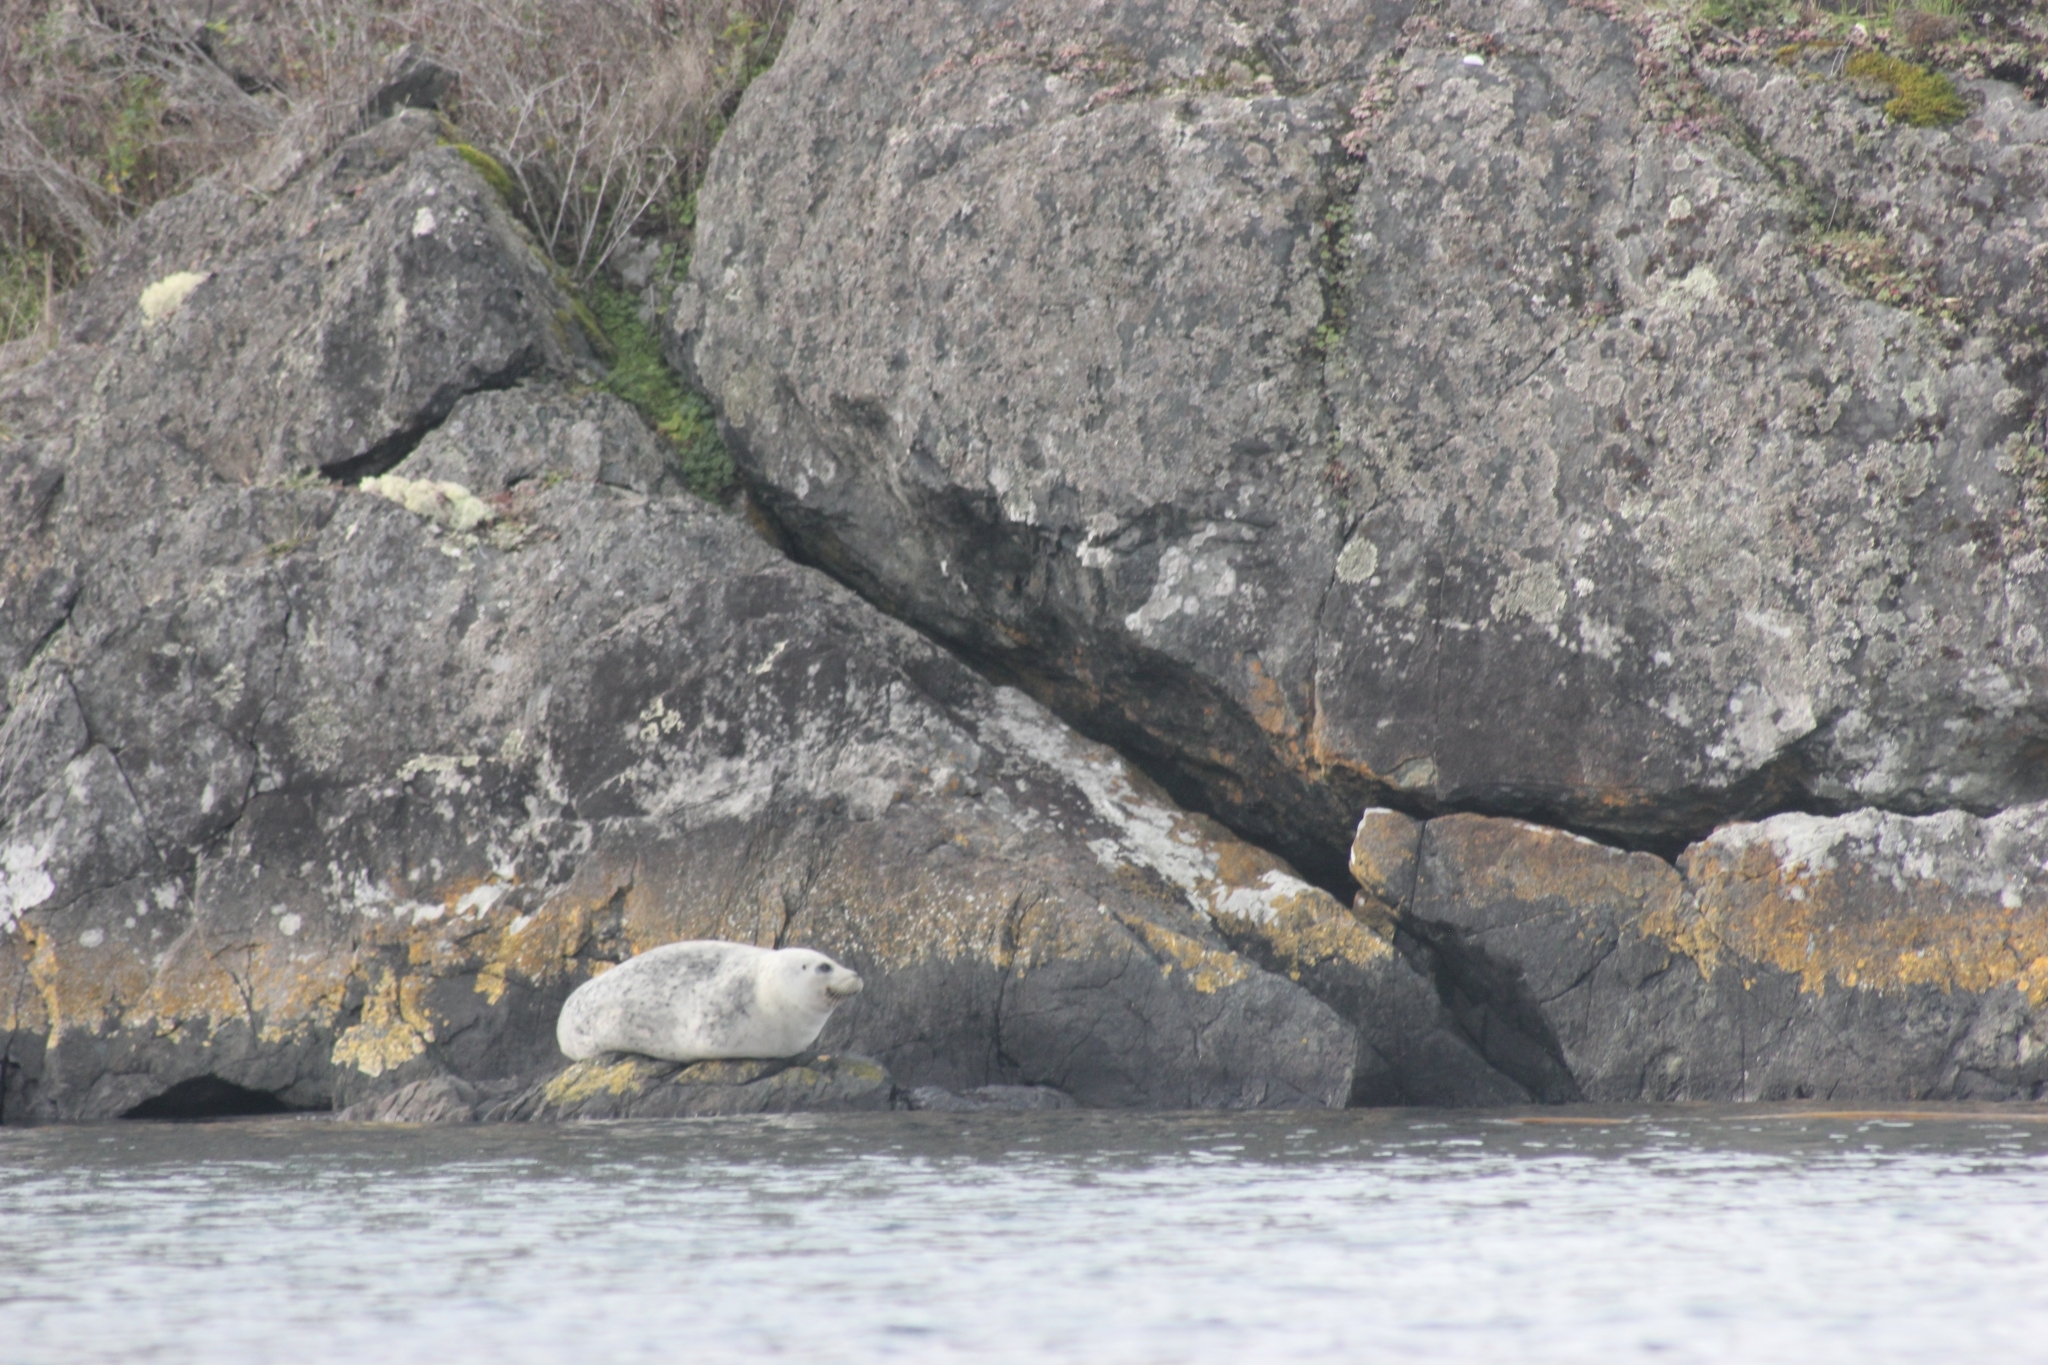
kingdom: Animalia
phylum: Chordata
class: Mammalia
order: Carnivora
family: Phocidae
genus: Phoca
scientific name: Phoca vitulina
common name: Harbor seal
